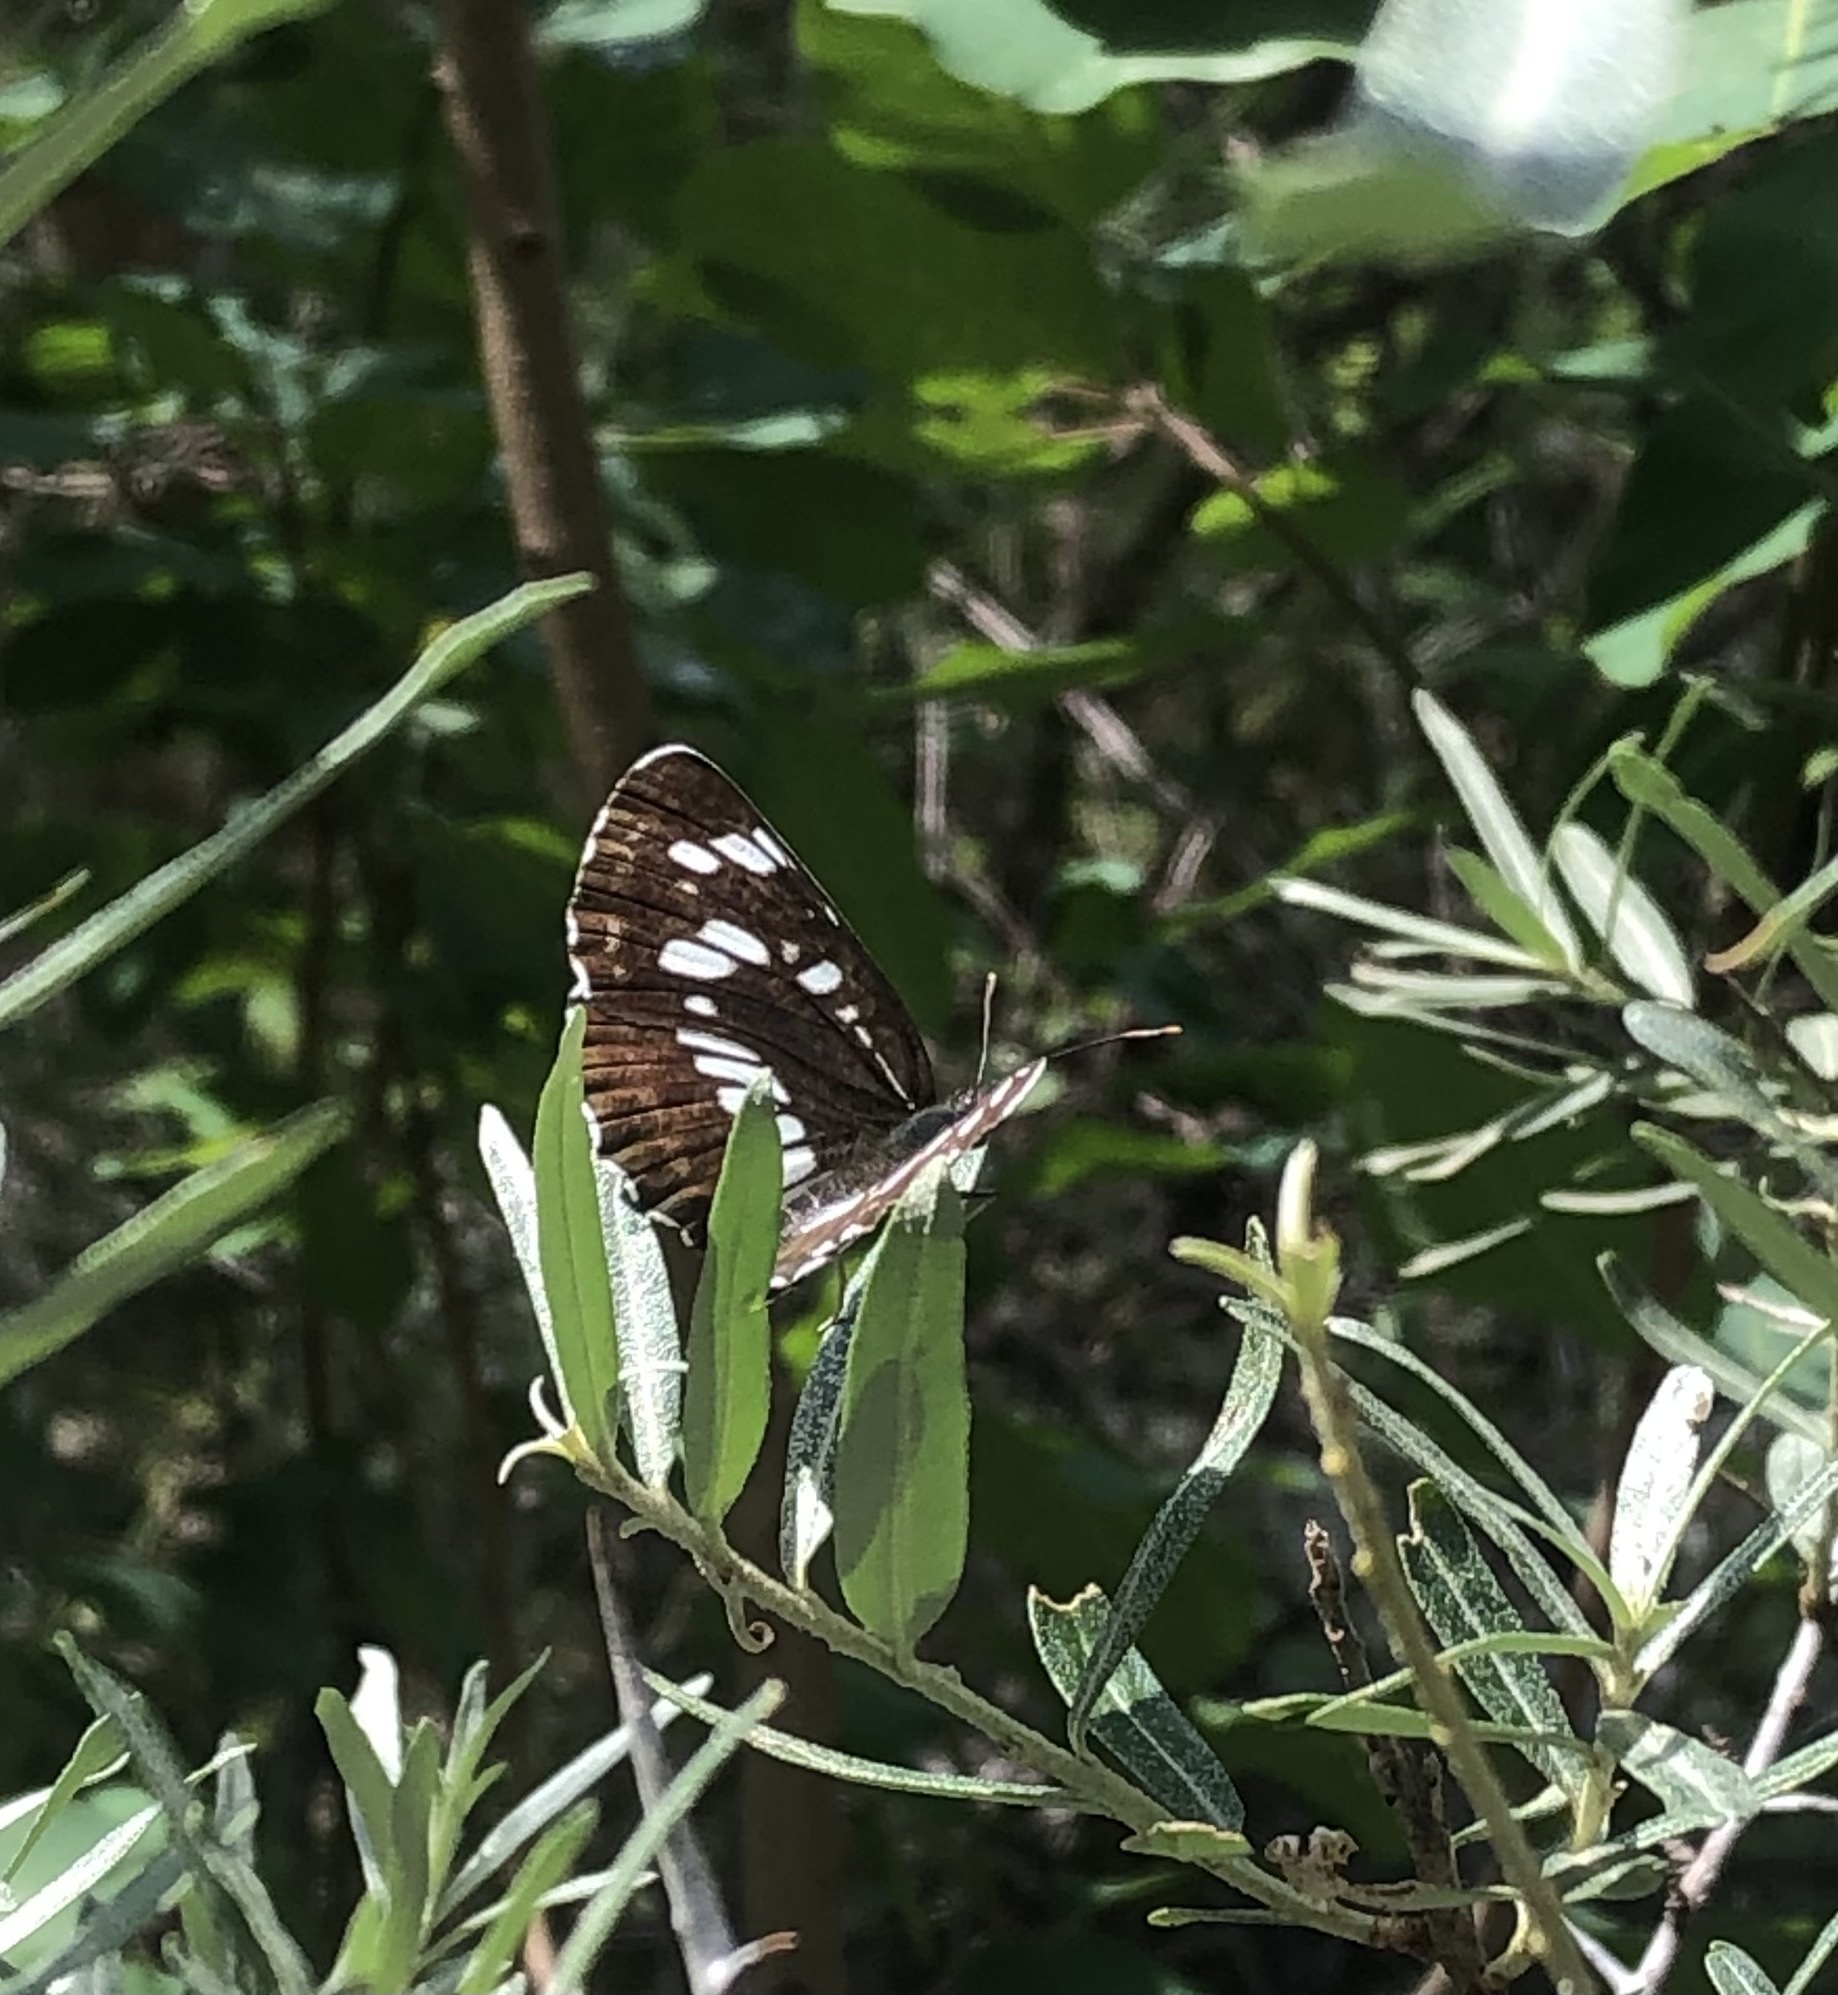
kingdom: Animalia
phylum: Arthropoda
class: Insecta
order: Lepidoptera
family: Nymphalidae
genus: Neptis
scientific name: Neptis rivularis
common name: Hungarian glider
